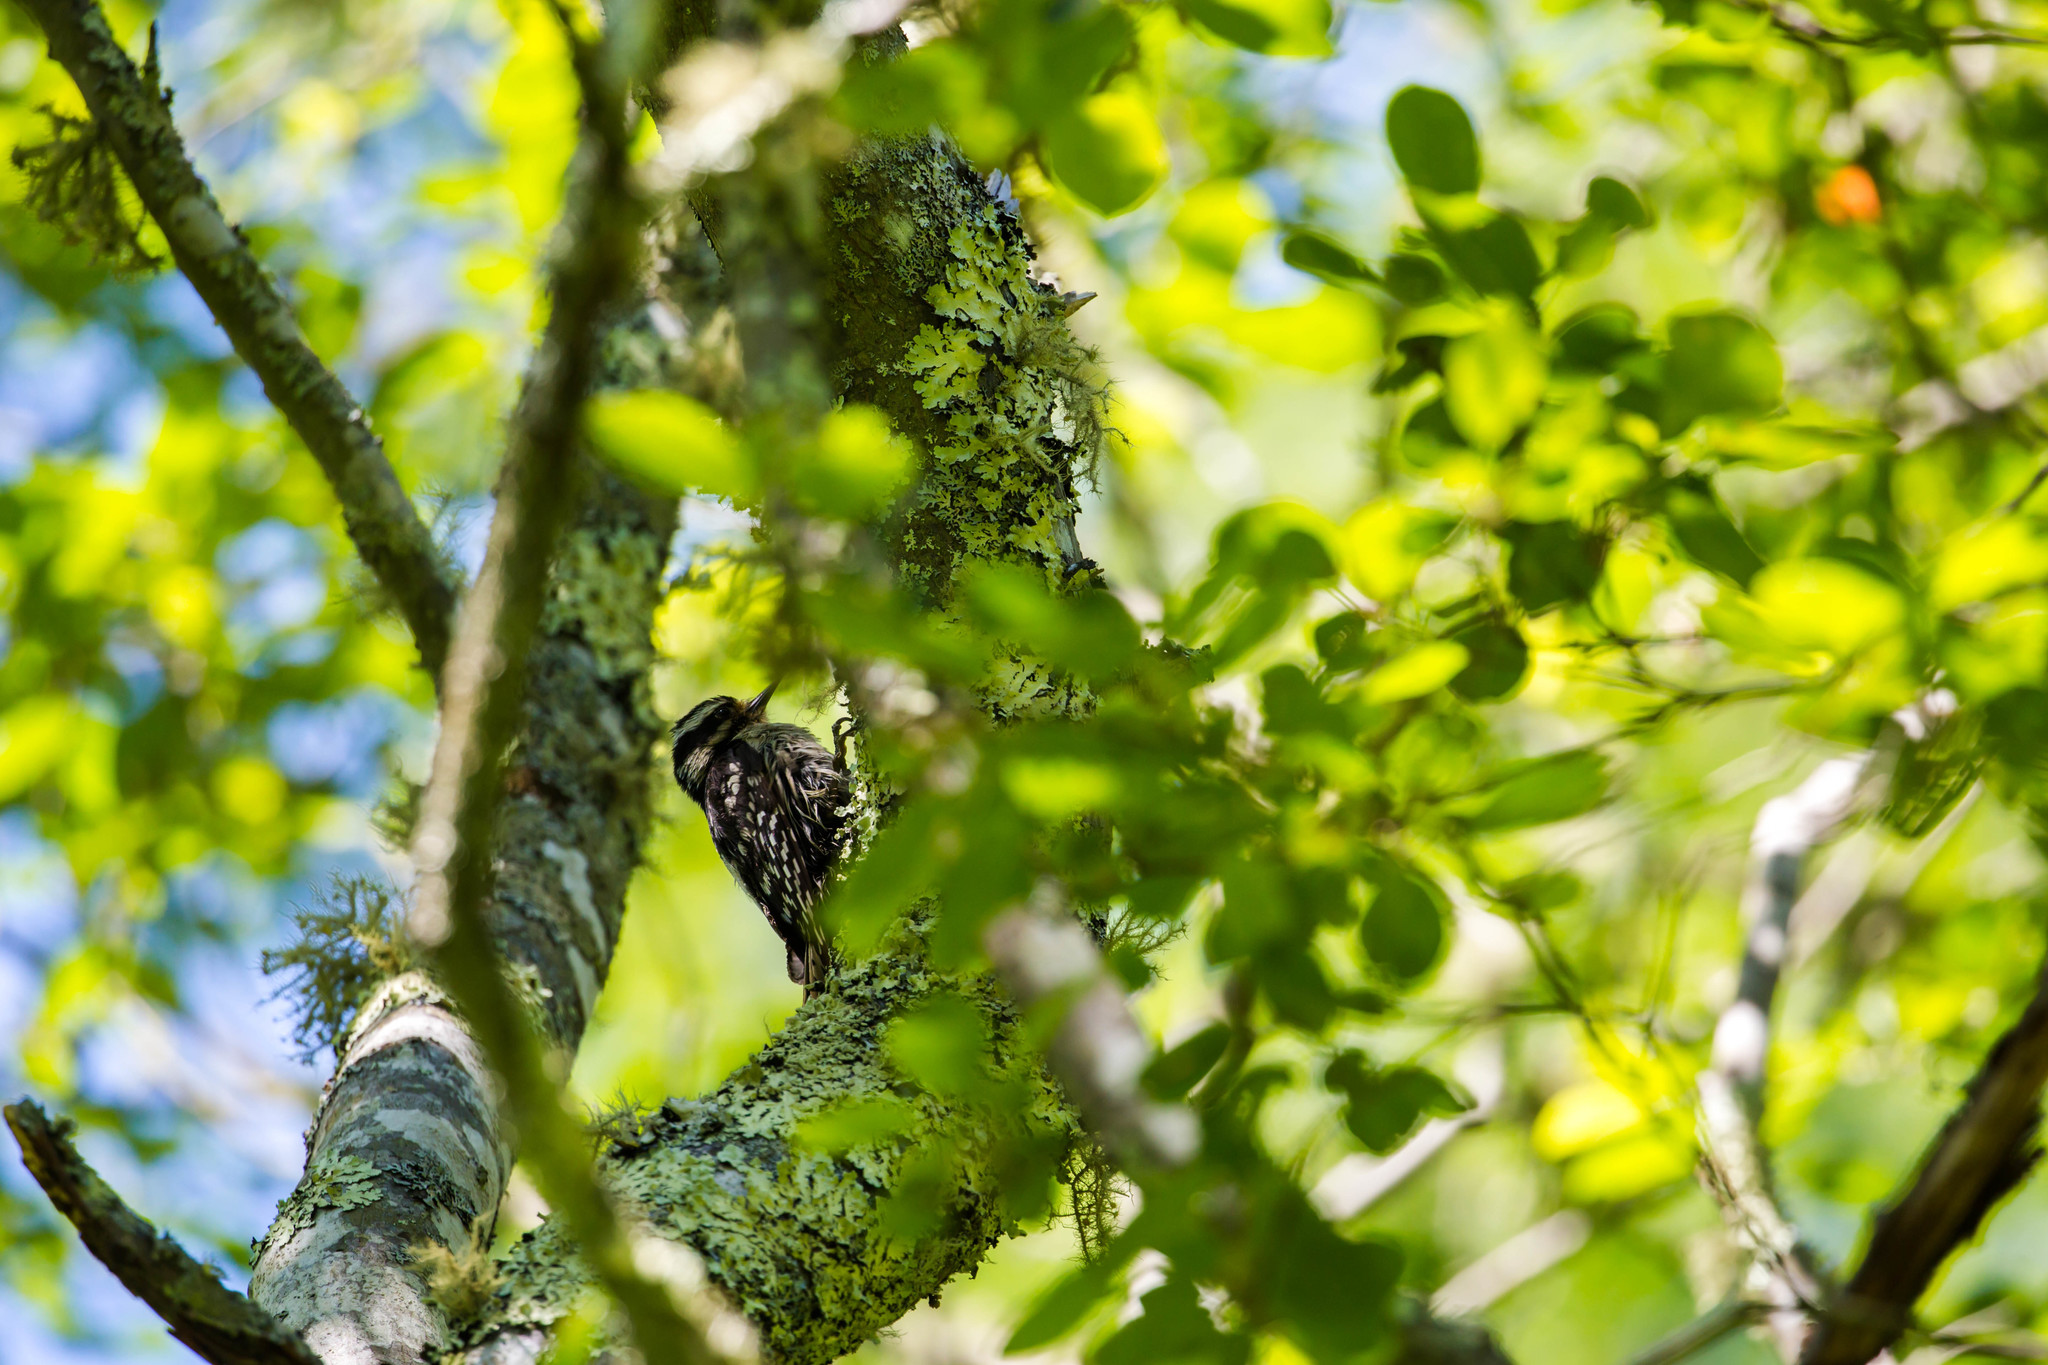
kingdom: Animalia
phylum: Chordata
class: Aves
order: Piciformes
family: Picidae
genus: Dryobates
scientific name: Dryobates pubescens
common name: Downy woodpecker
